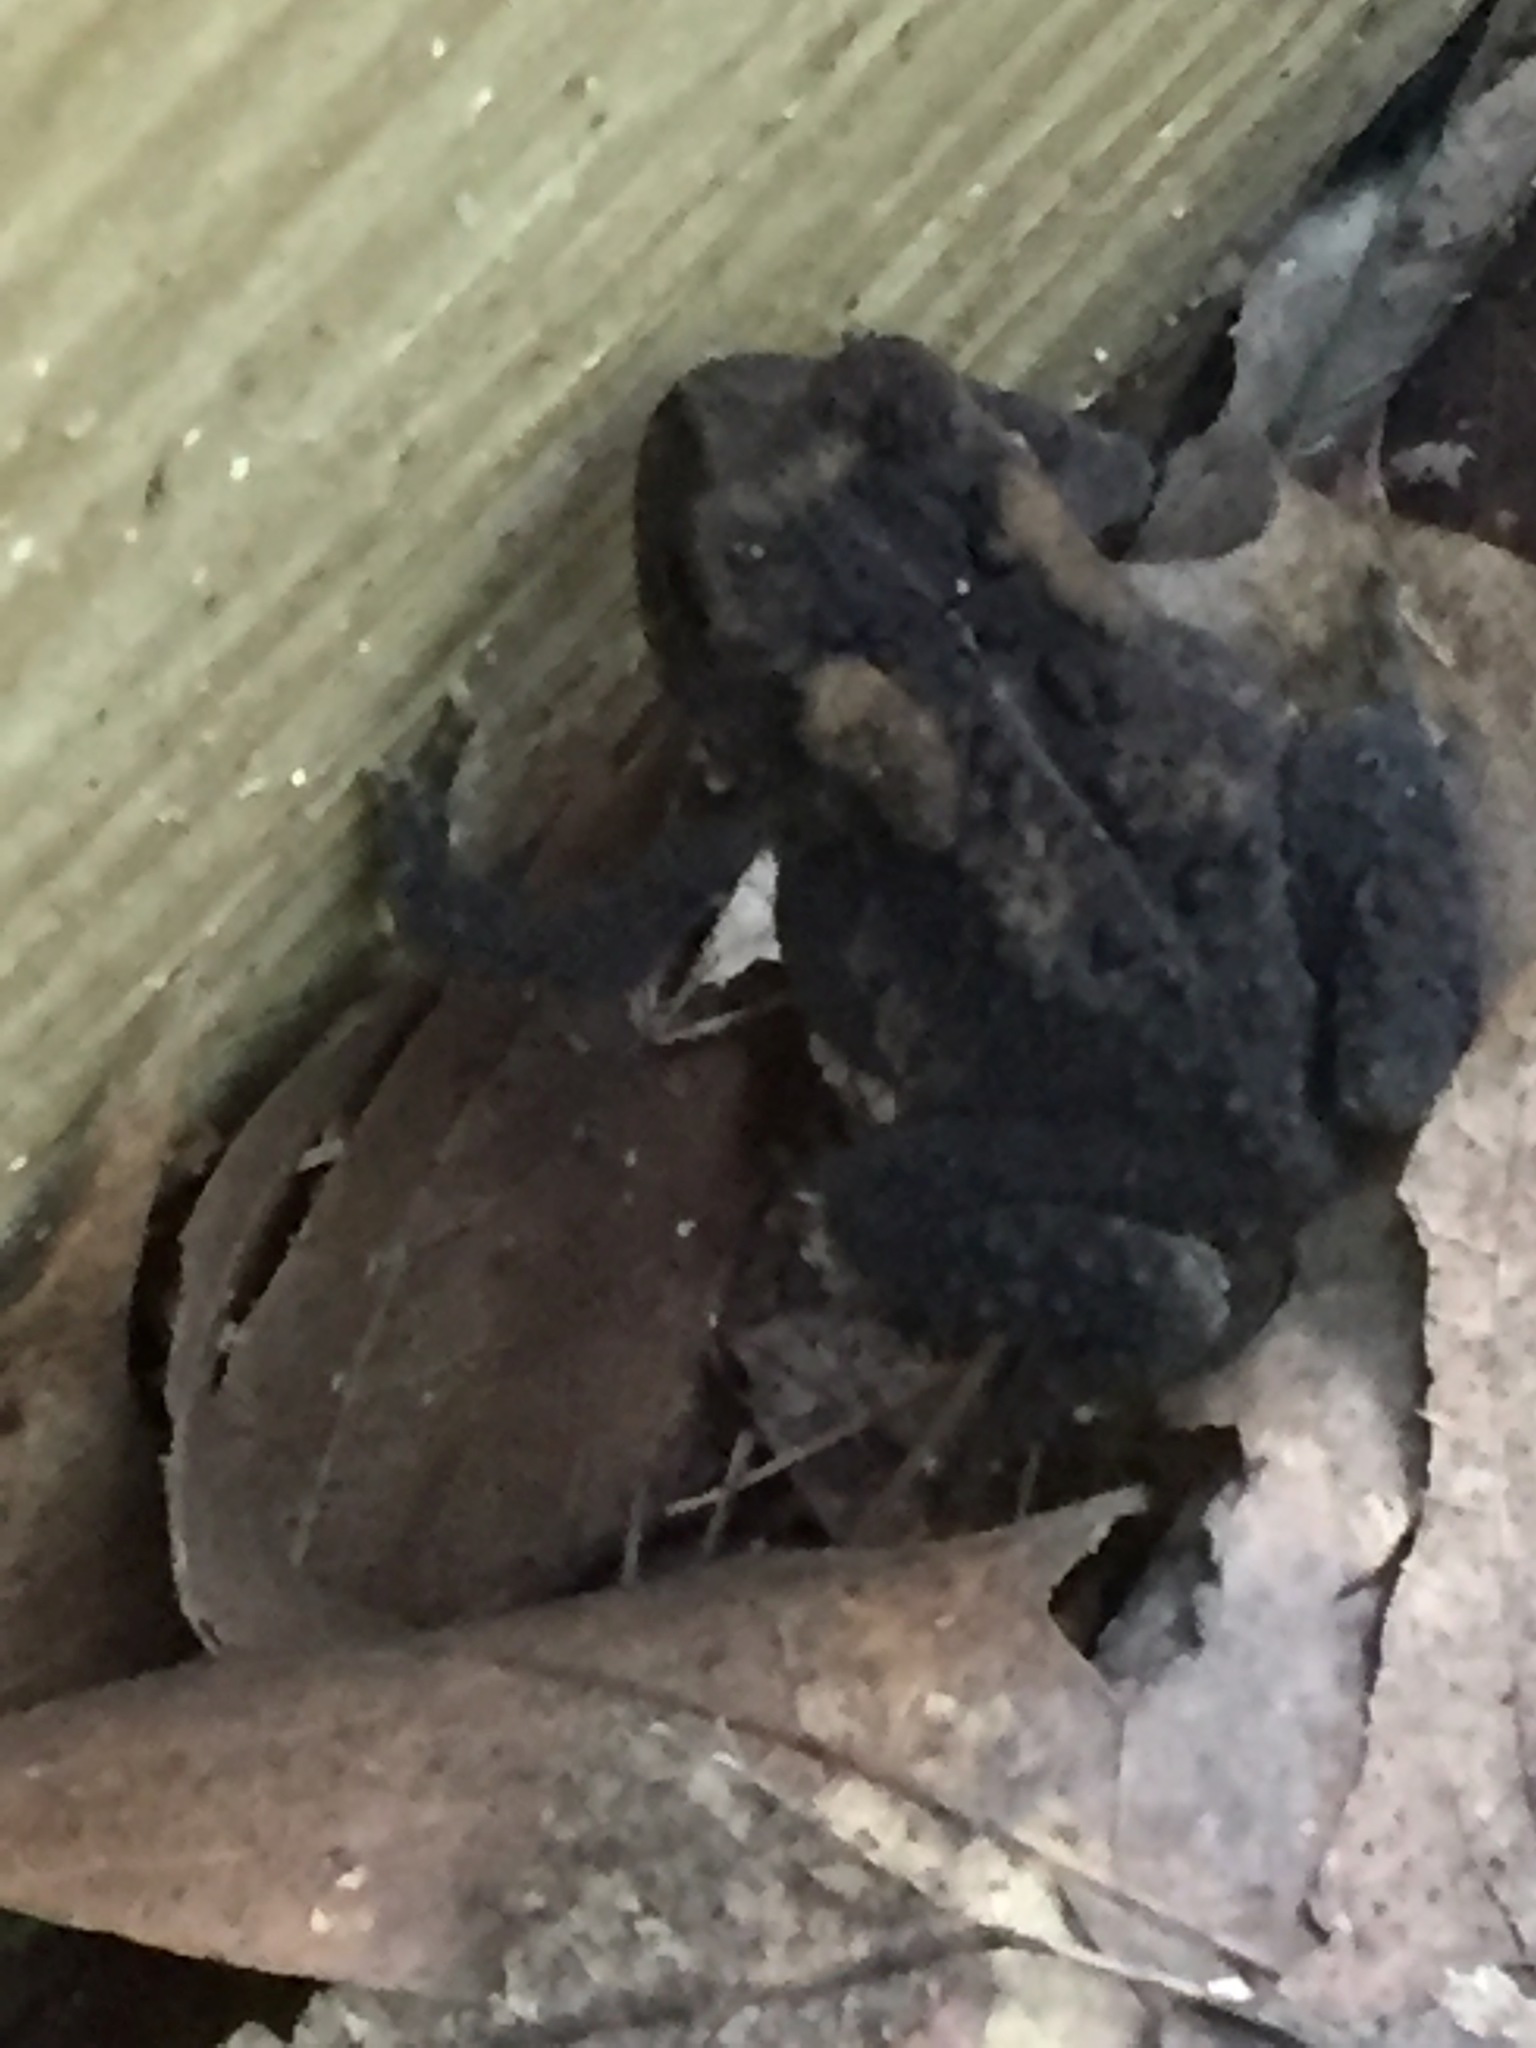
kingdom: Animalia
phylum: Chordata
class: Amphibia
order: Anura
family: Bufonidae
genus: Anaxyrus
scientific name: Anaxyrus americanus
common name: American toad
